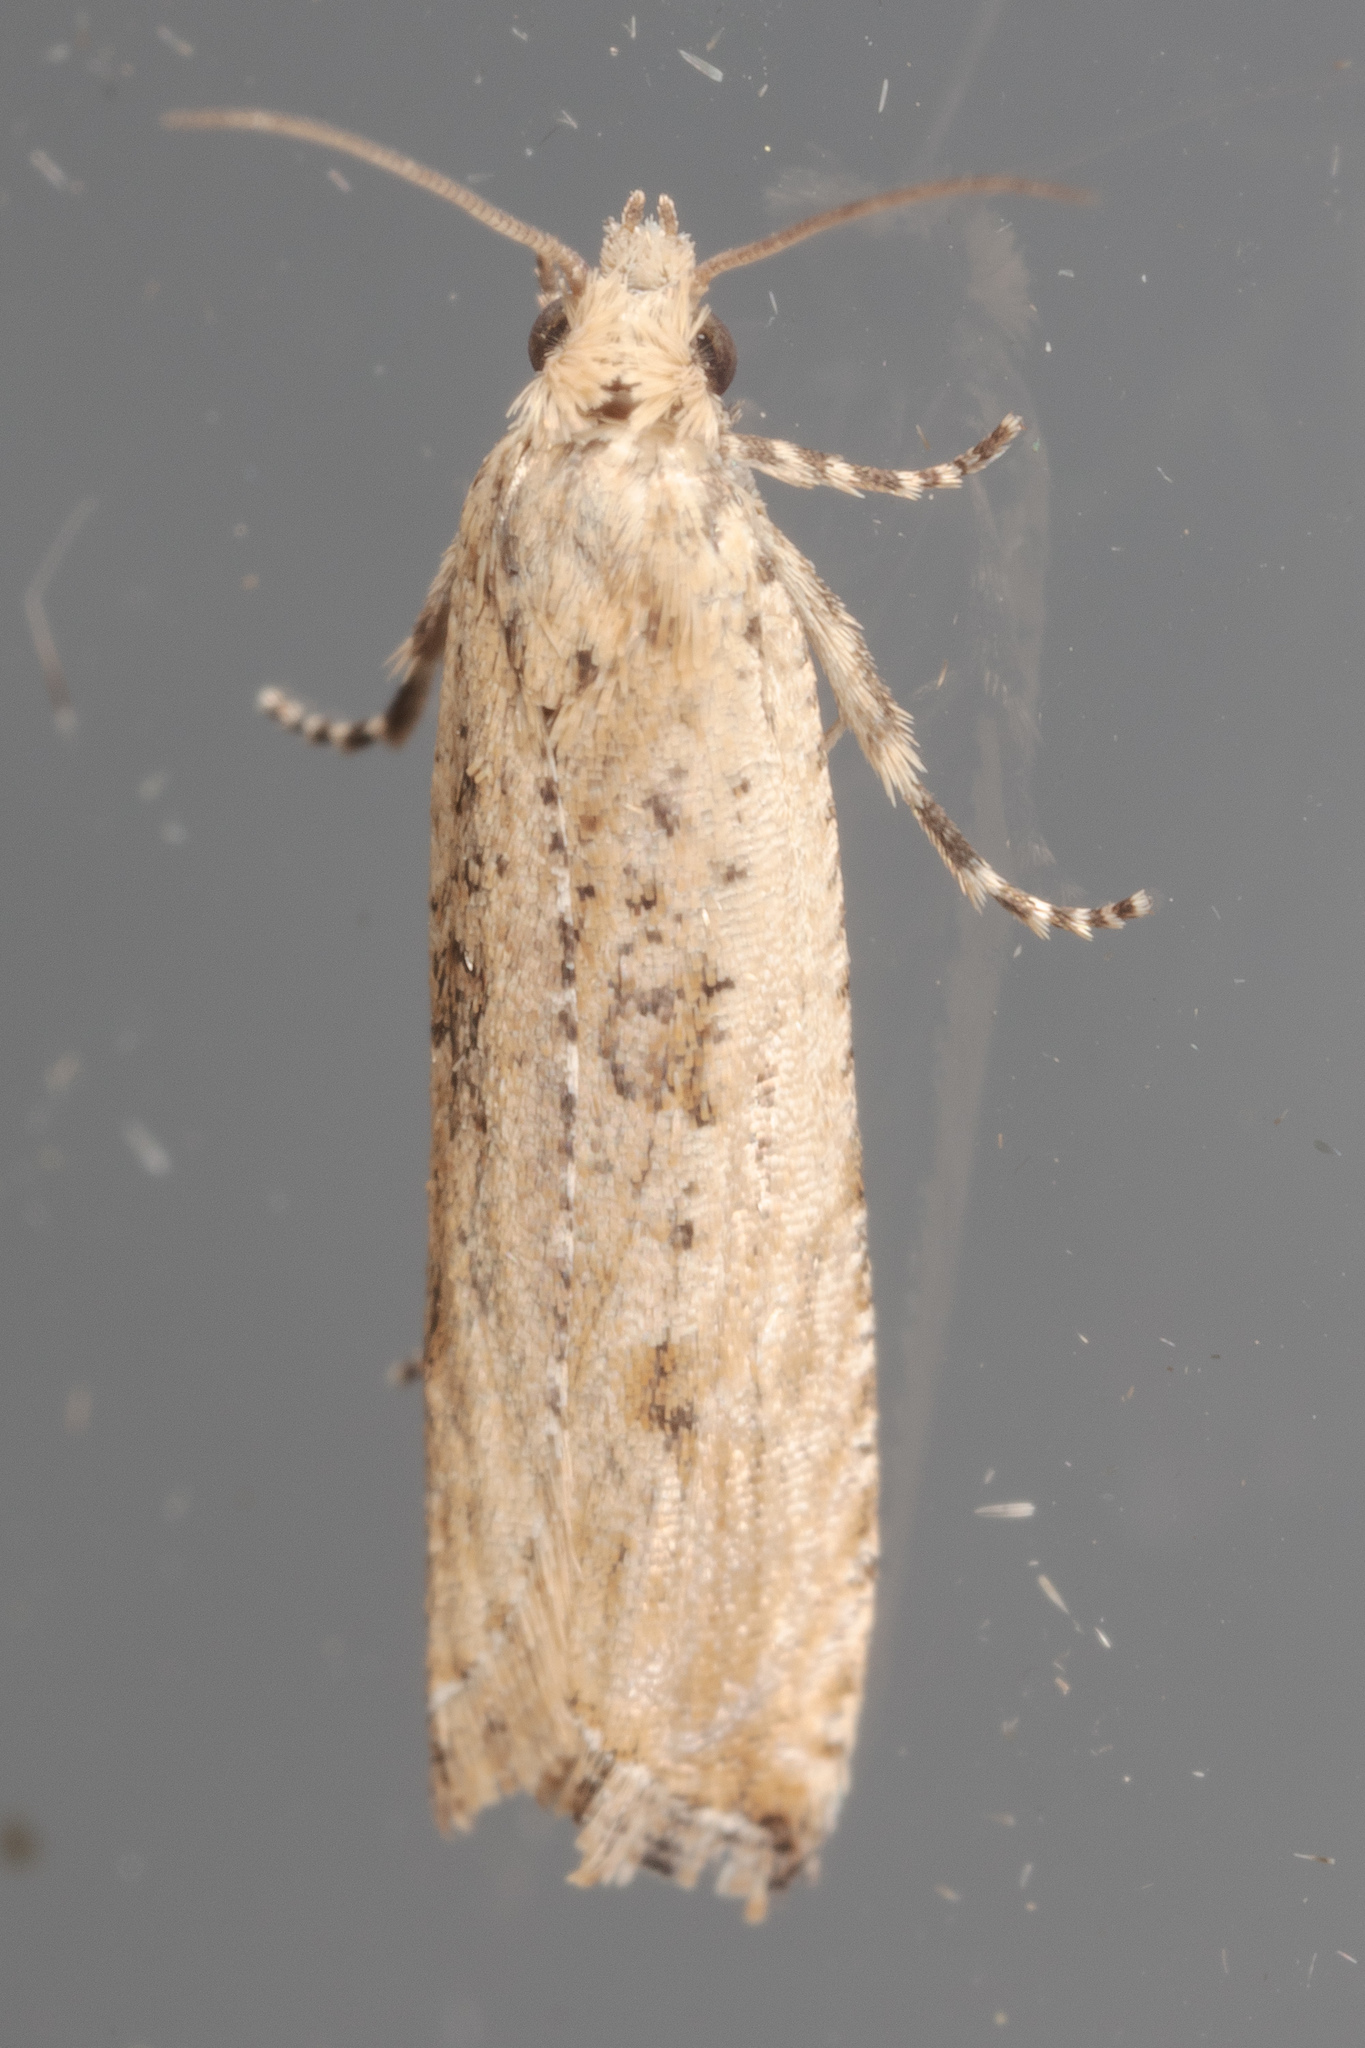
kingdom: Animalia
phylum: Arthropoda
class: Insecta
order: Lepidoptera
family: Tortricidae
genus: Bactra
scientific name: Bactra verutana
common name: Javelin moth
